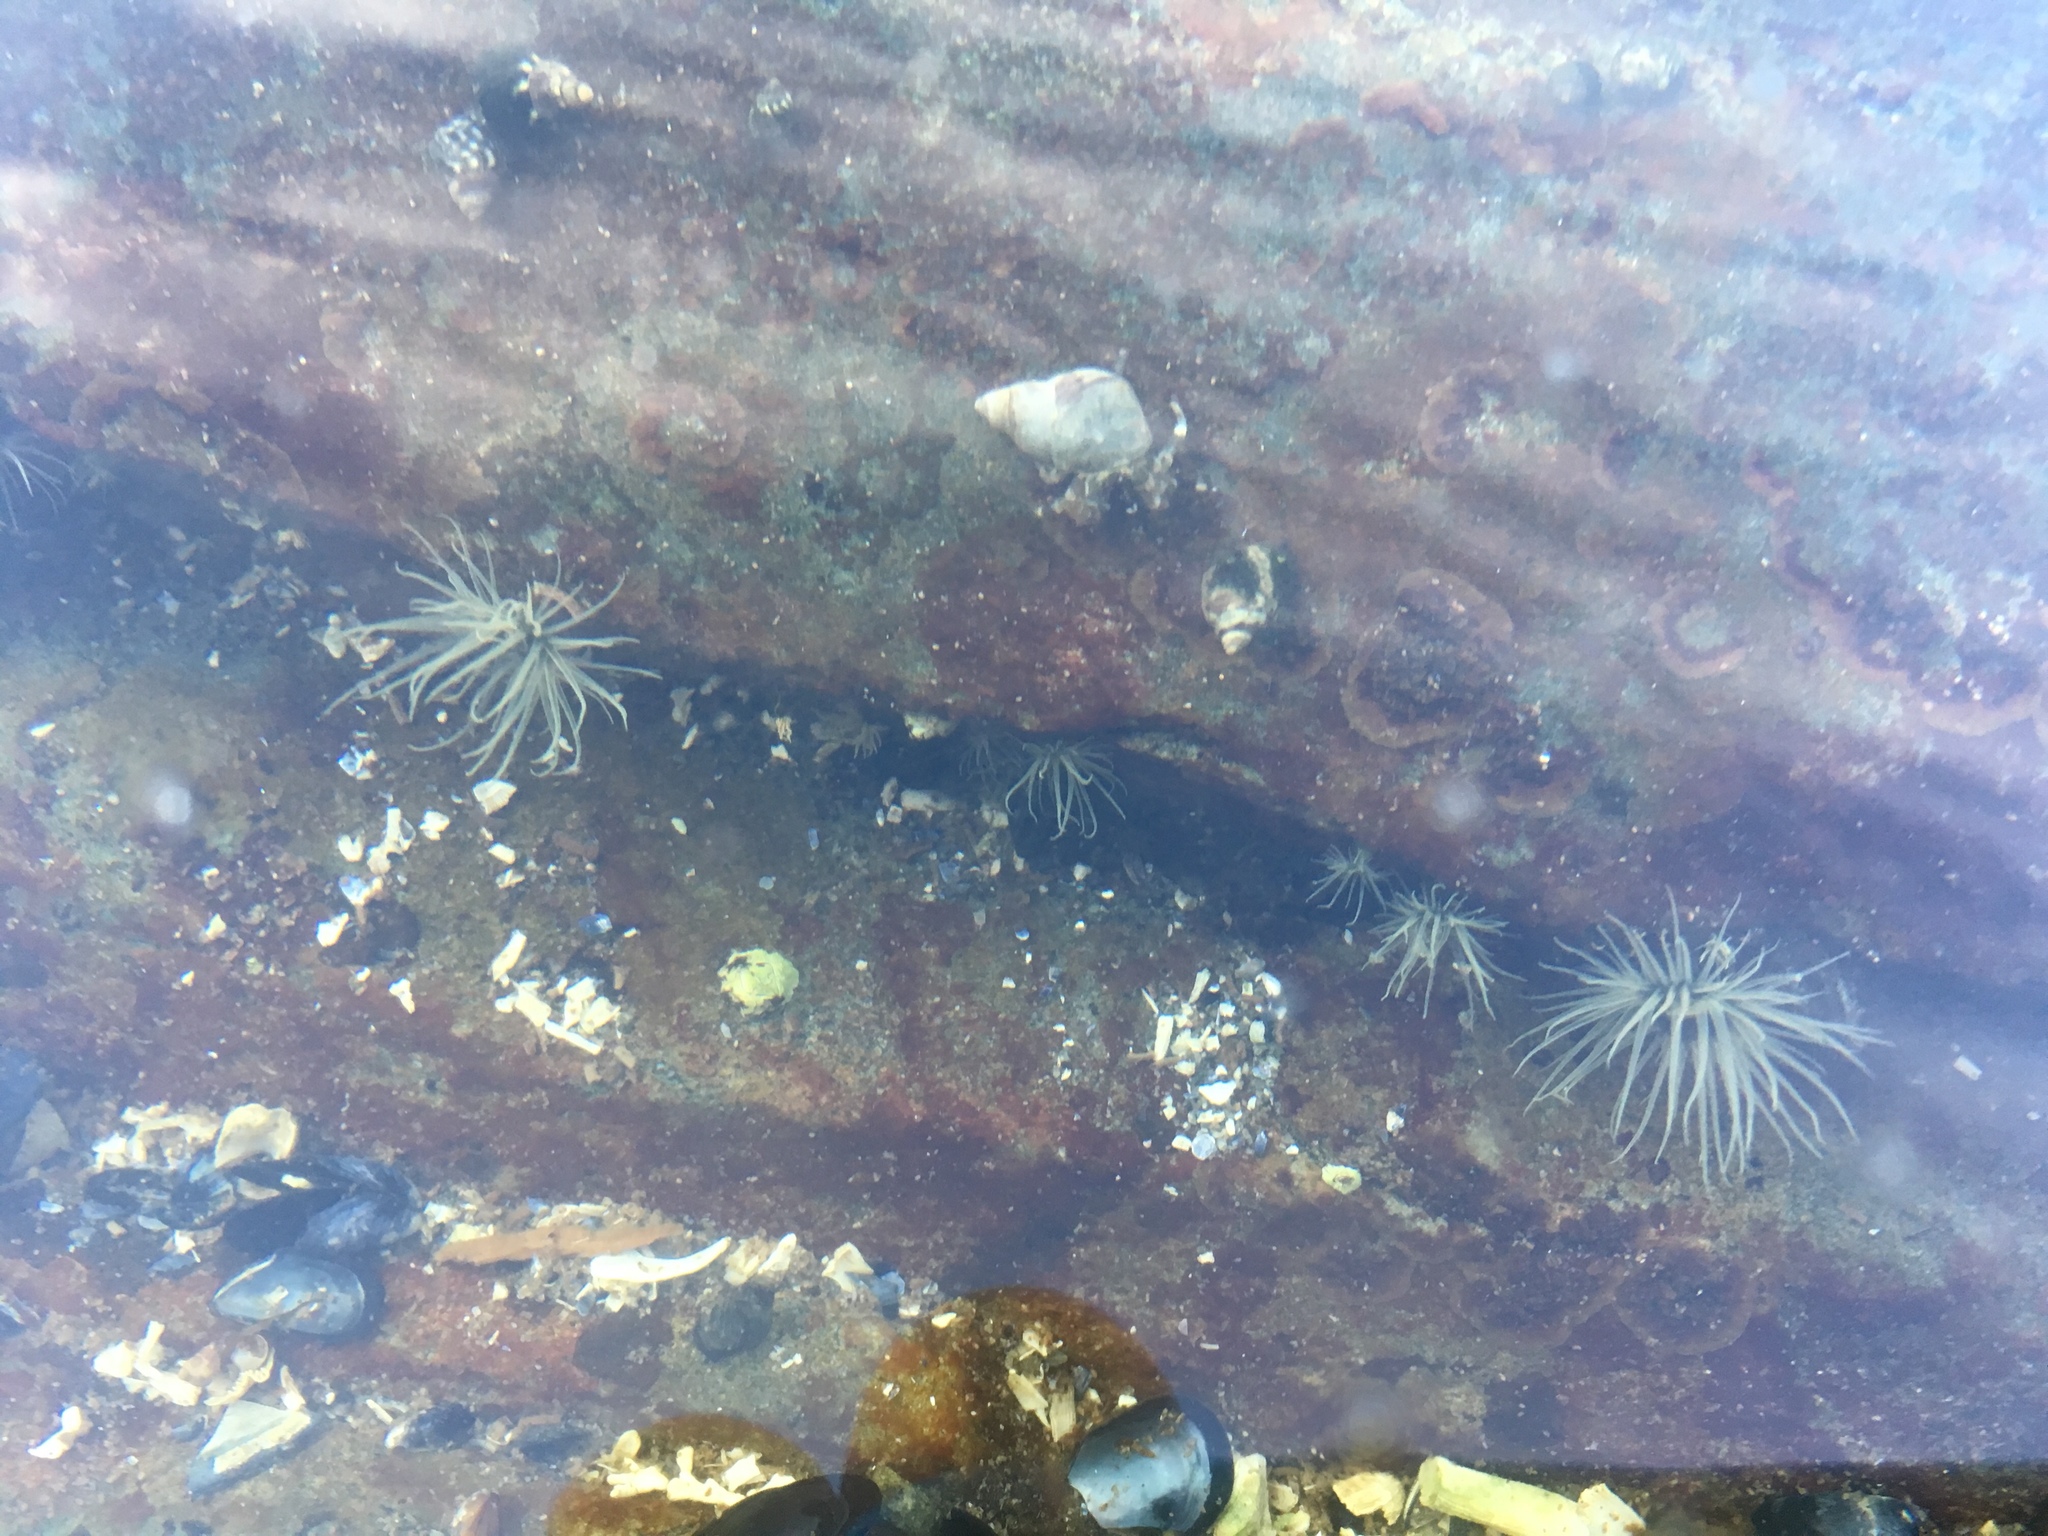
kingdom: Animalia
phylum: Cnidaria
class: Anthozoa
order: Actiniaria
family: Diadumenidae
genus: Diadumene
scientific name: Diadumene lineata
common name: Orange-striped anemone
